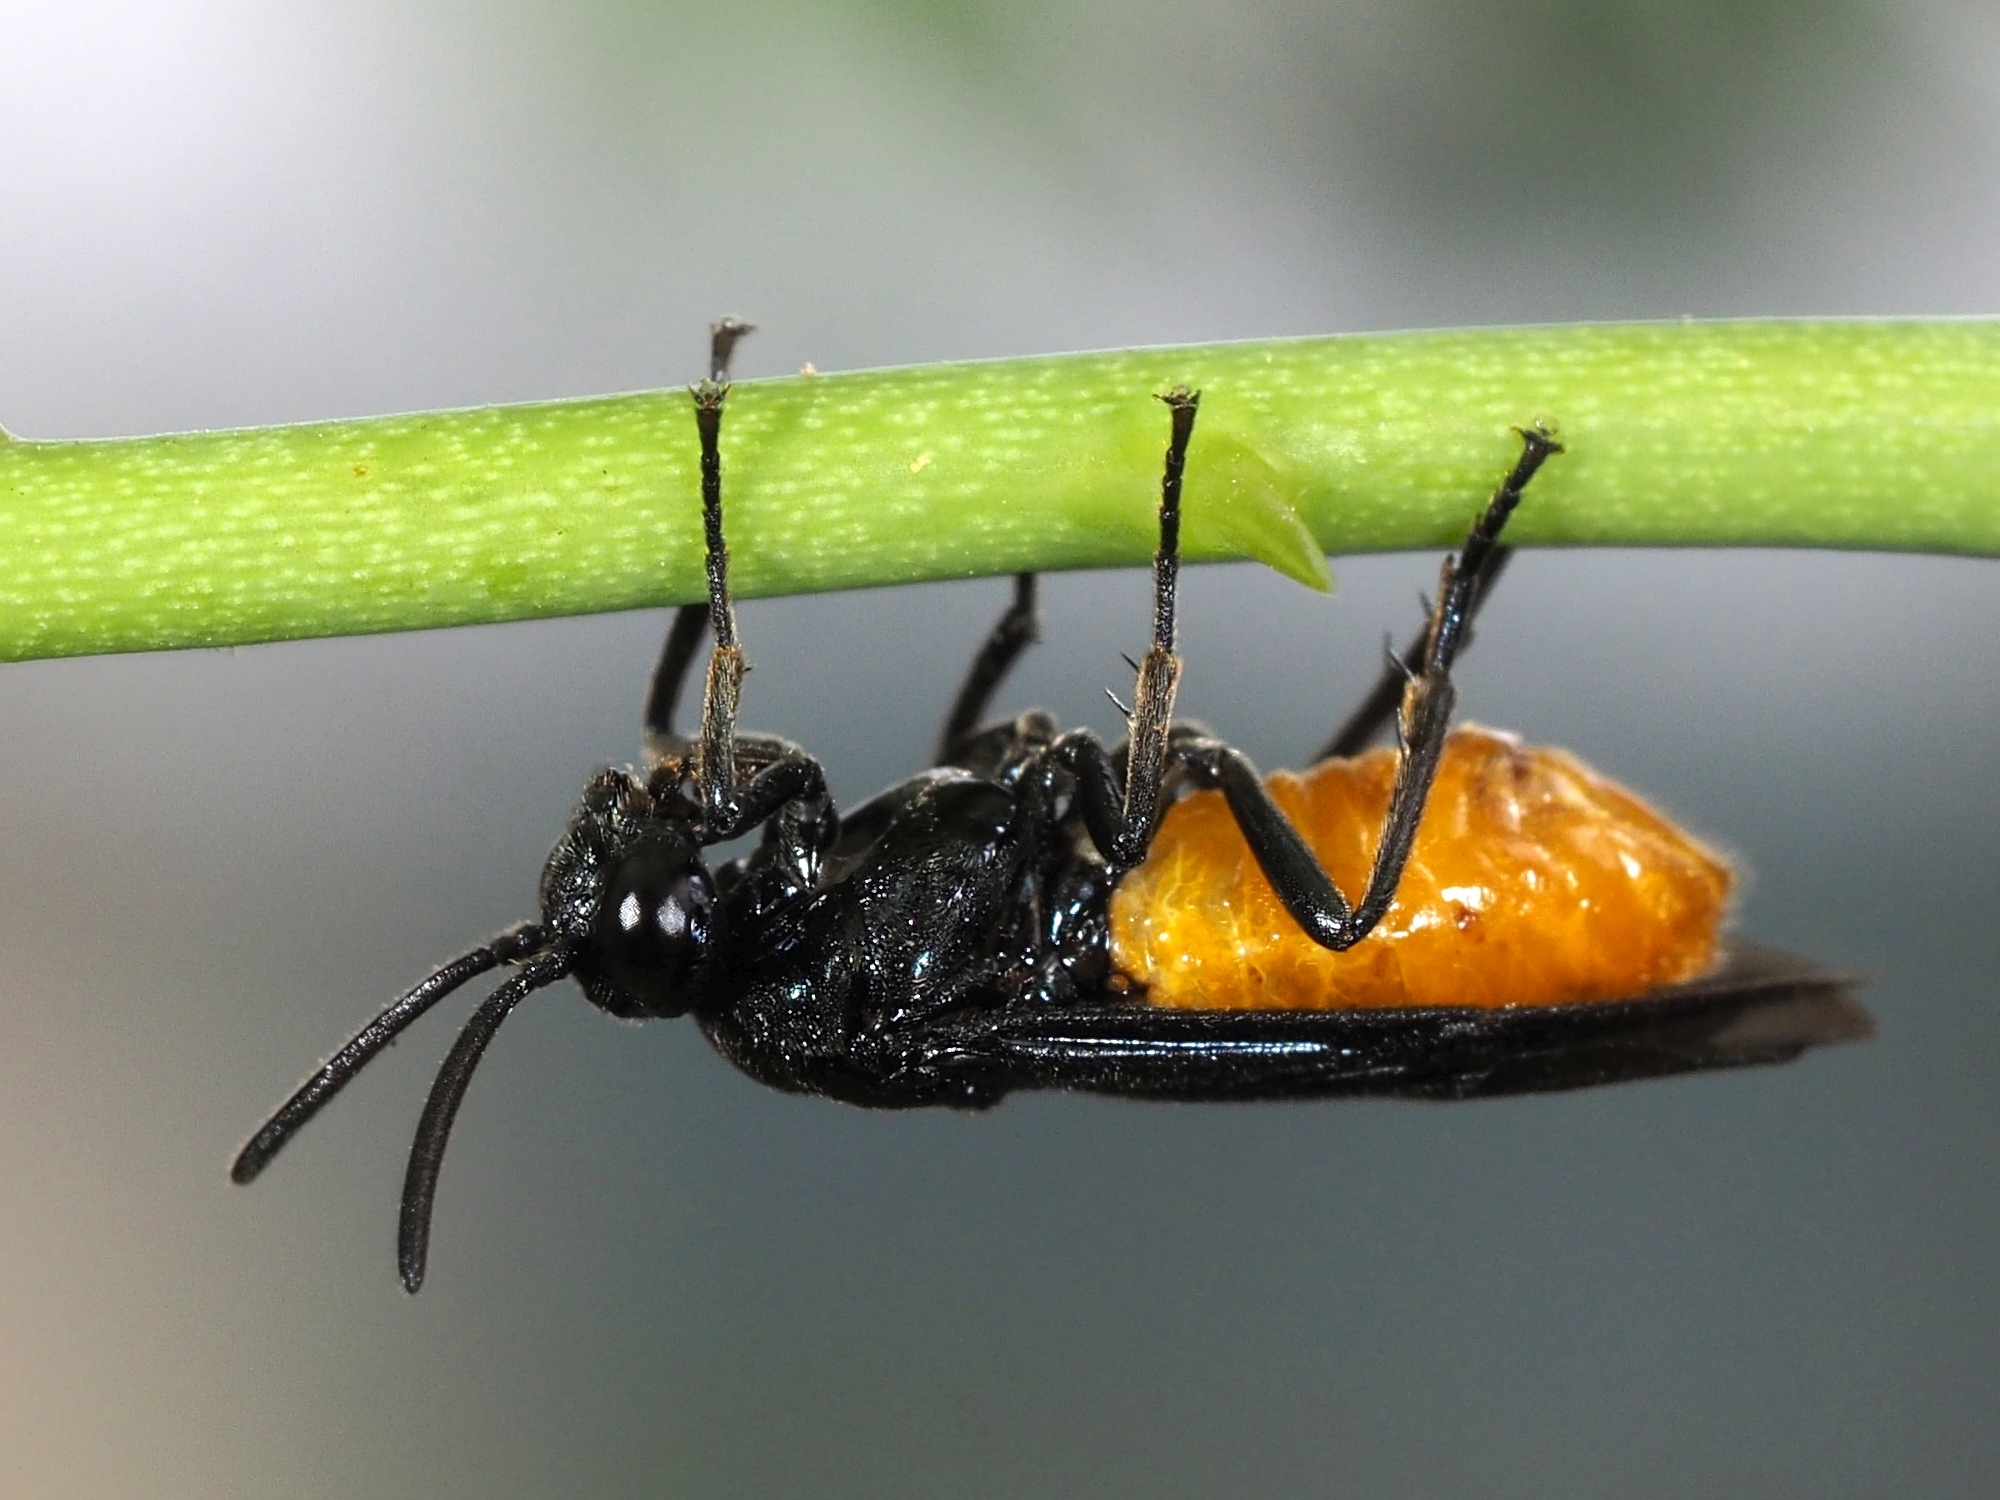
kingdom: Animalia
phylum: Arthropoda
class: Insecta
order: Hymenoptera
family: Argidae
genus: Arge
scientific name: Arge pagana
